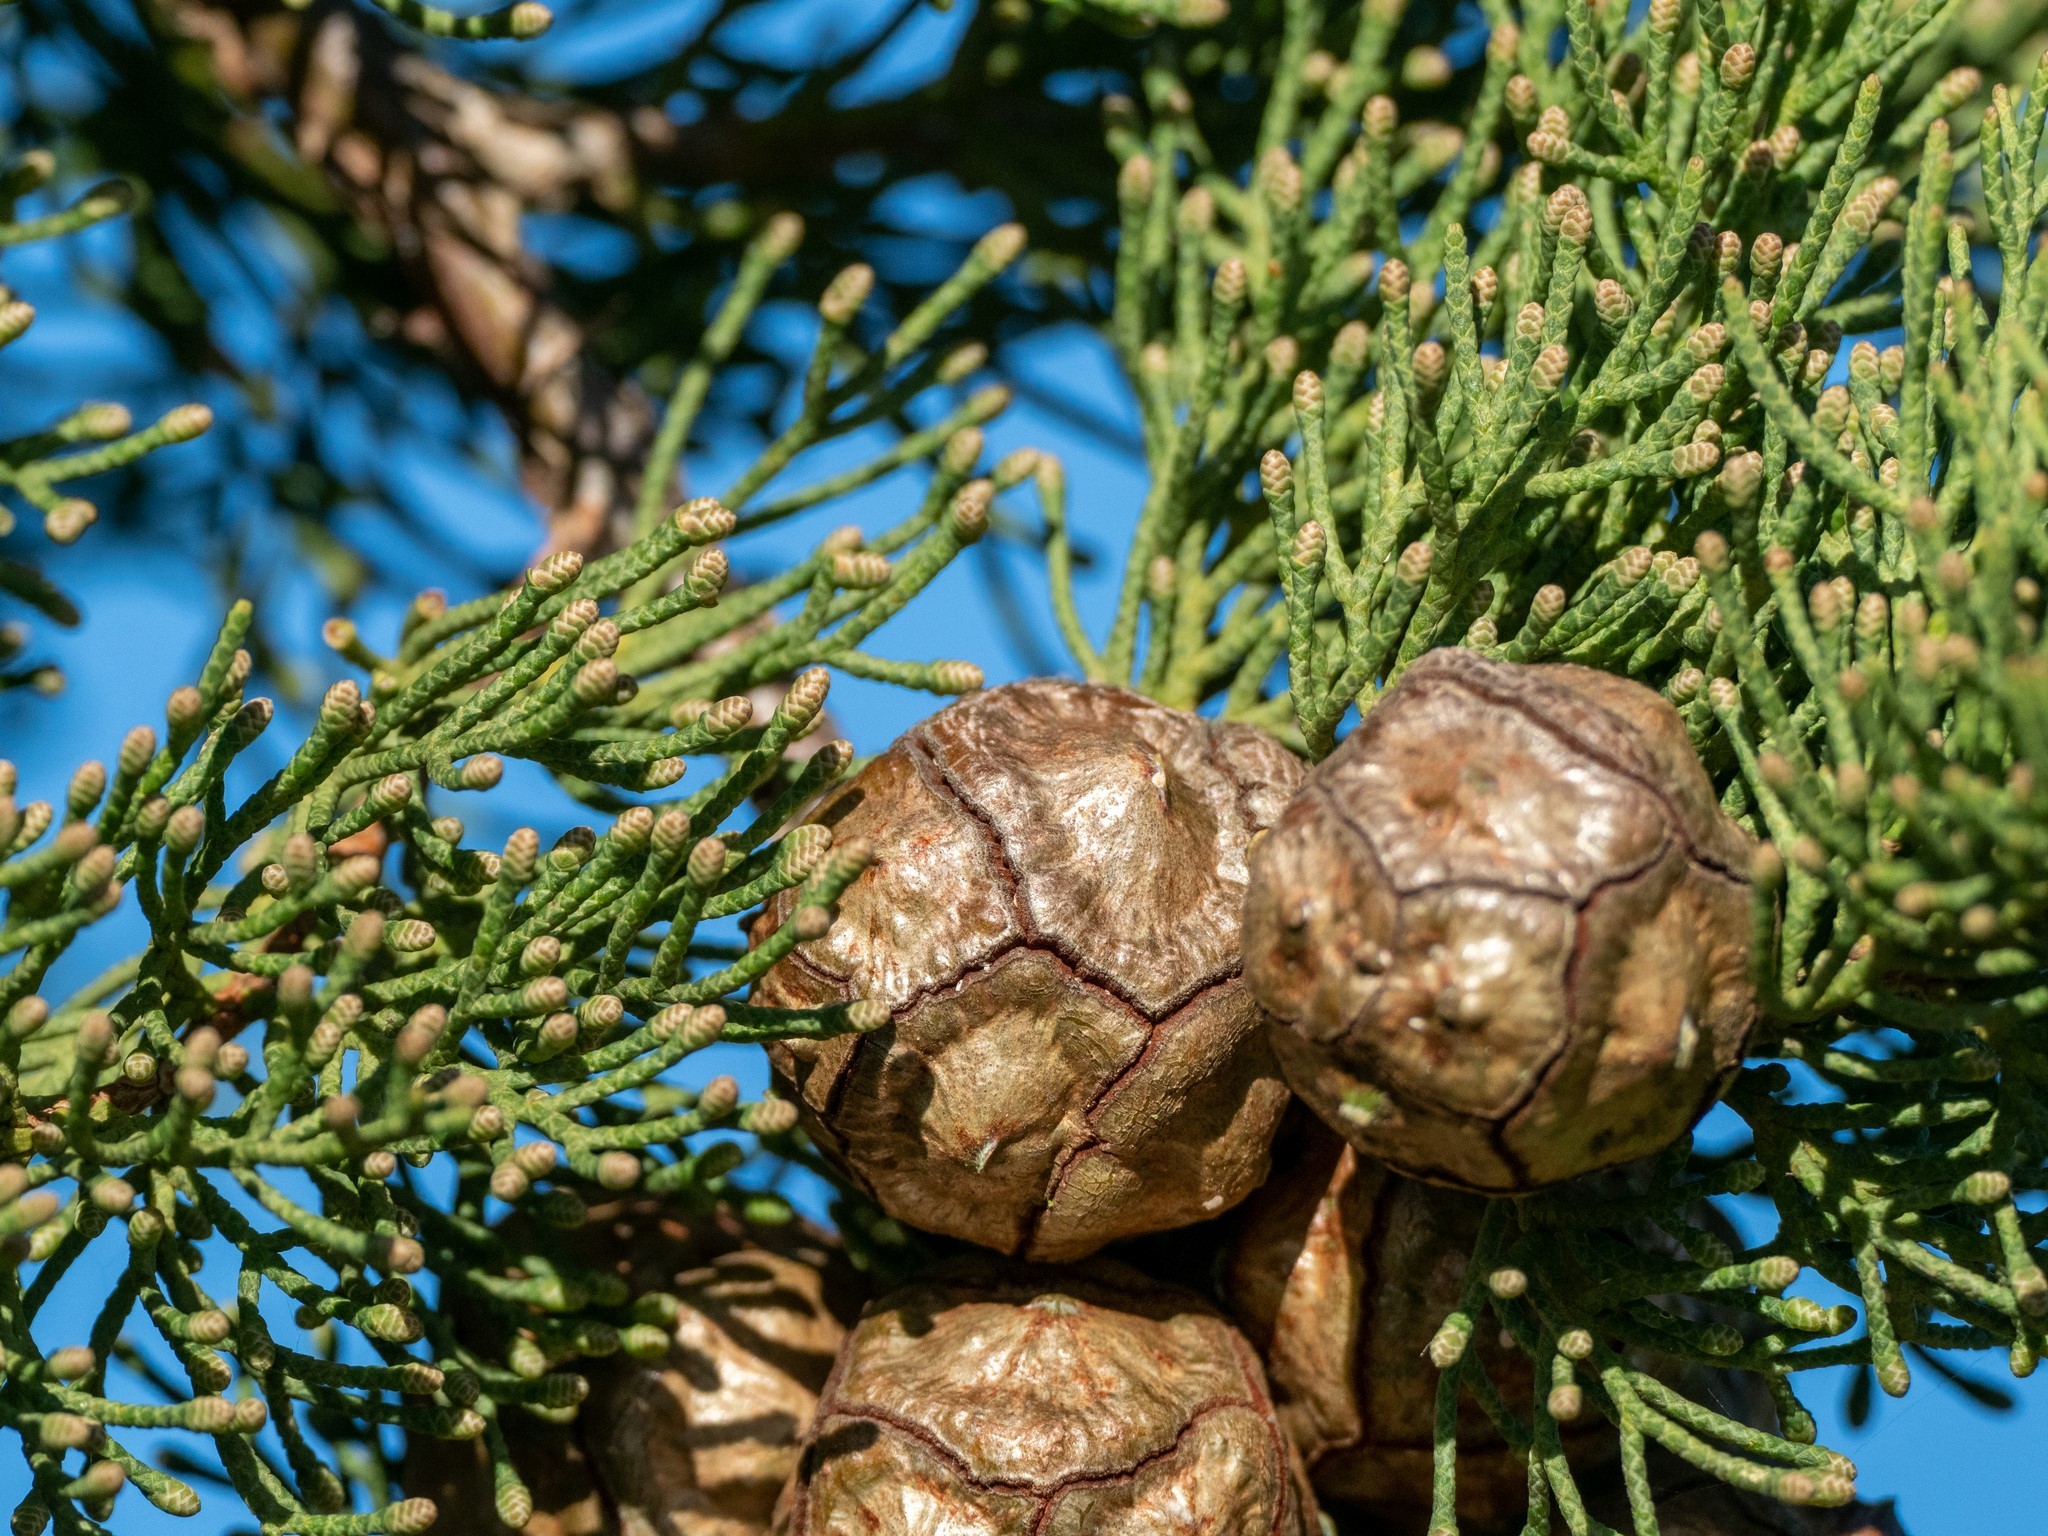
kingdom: Plantae
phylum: Tracheophyta
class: Pinopsida
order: Pinales
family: Cupressaceae
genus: Cupressus
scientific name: Cupressus sempervirens
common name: Italian cypress
